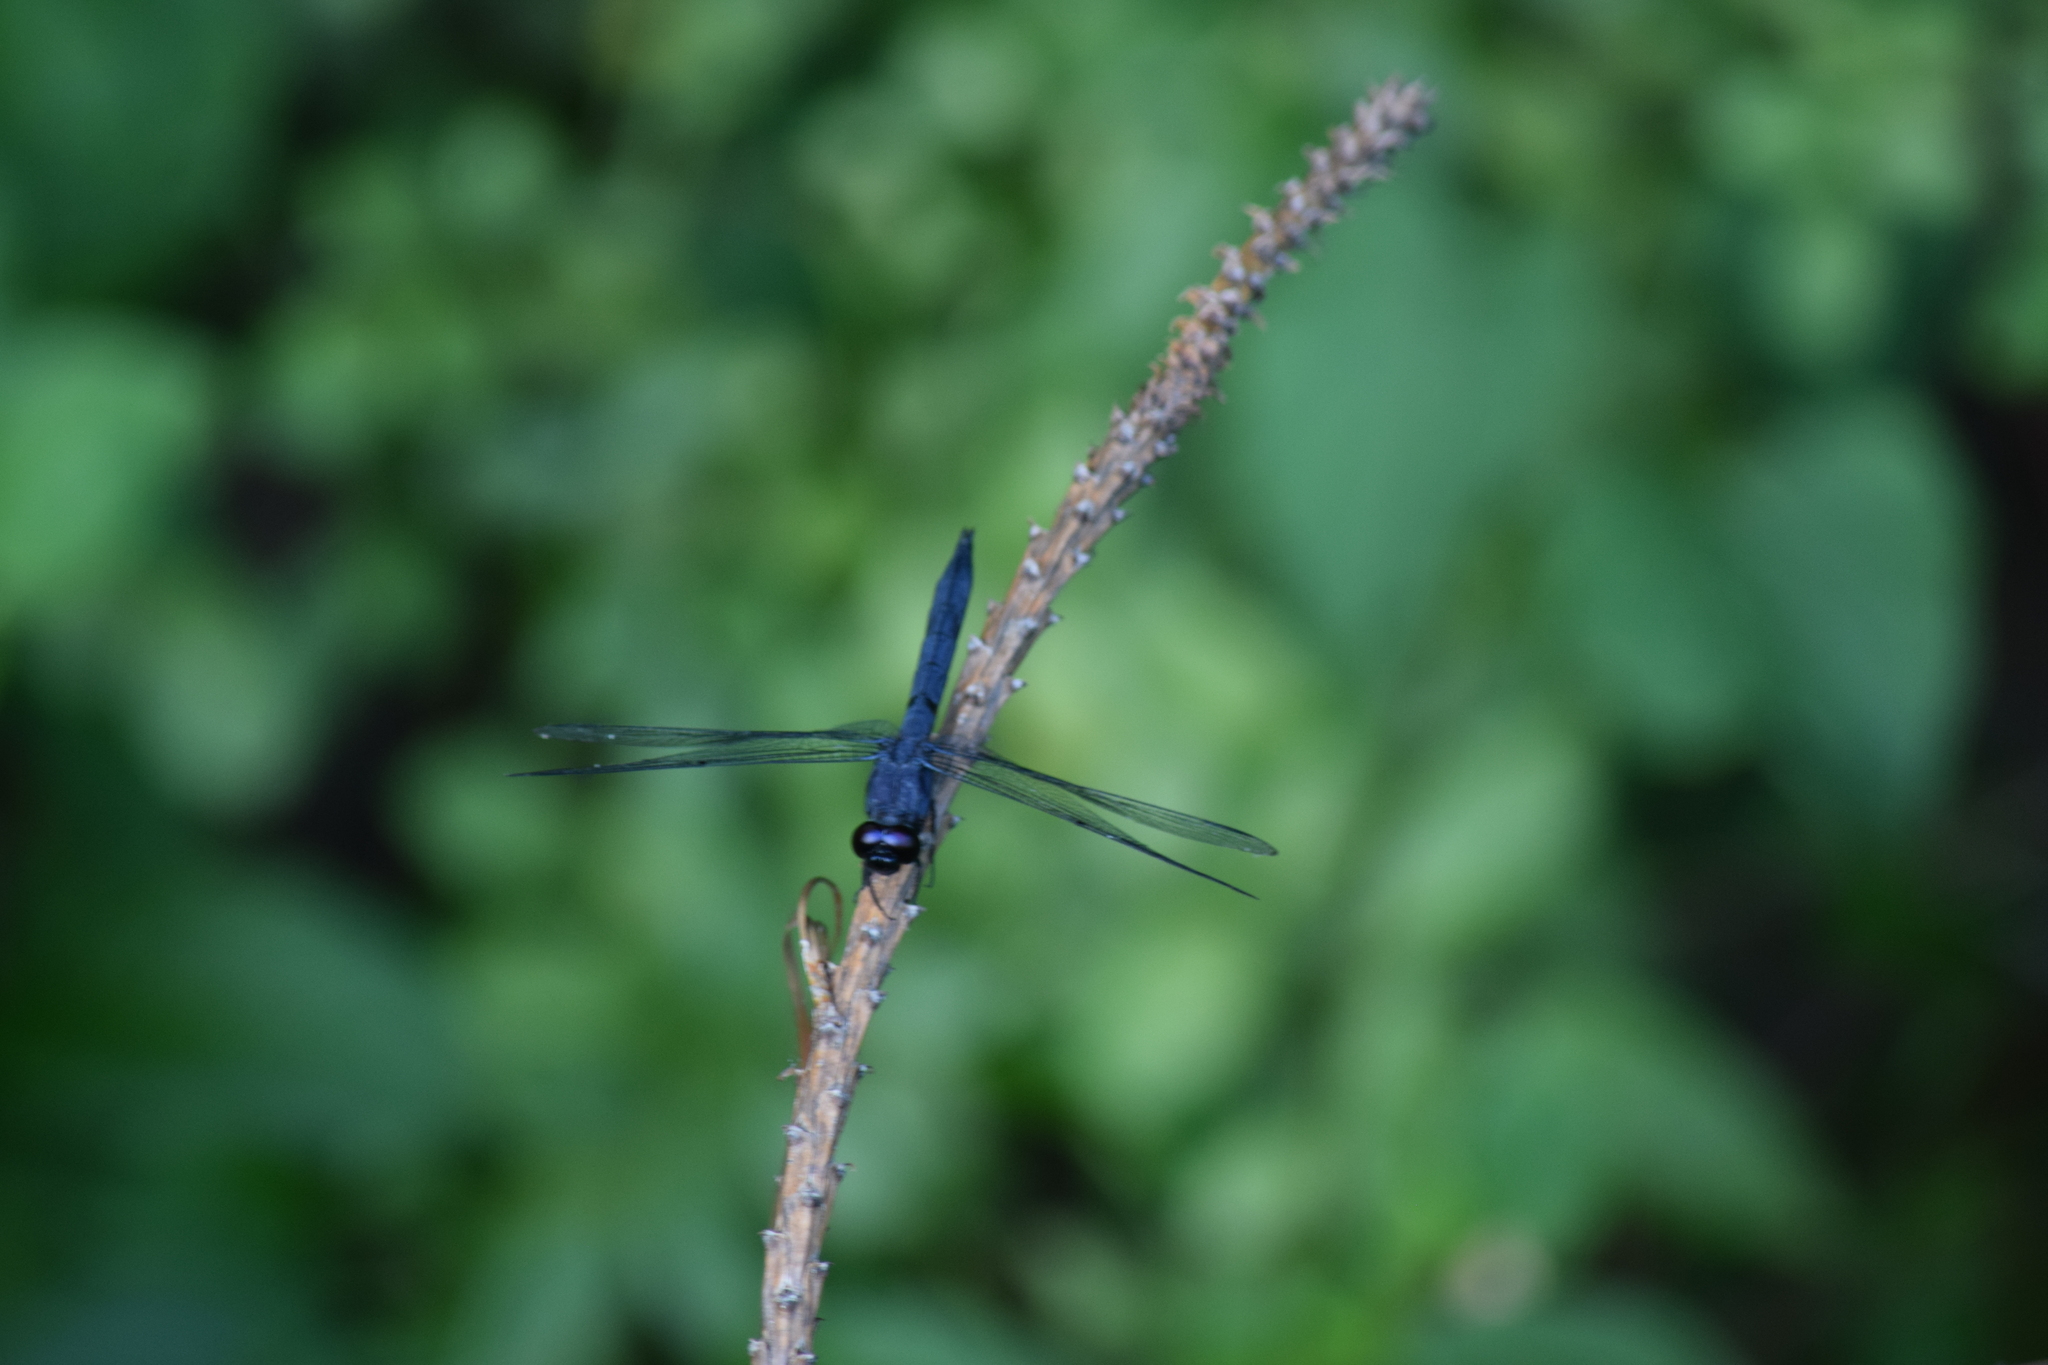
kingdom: Animalia
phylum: Arthropoda
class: Insecta
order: Odonata
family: Libellulidae
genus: Libellula
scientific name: Libellula incesta
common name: Slaty skimmer
